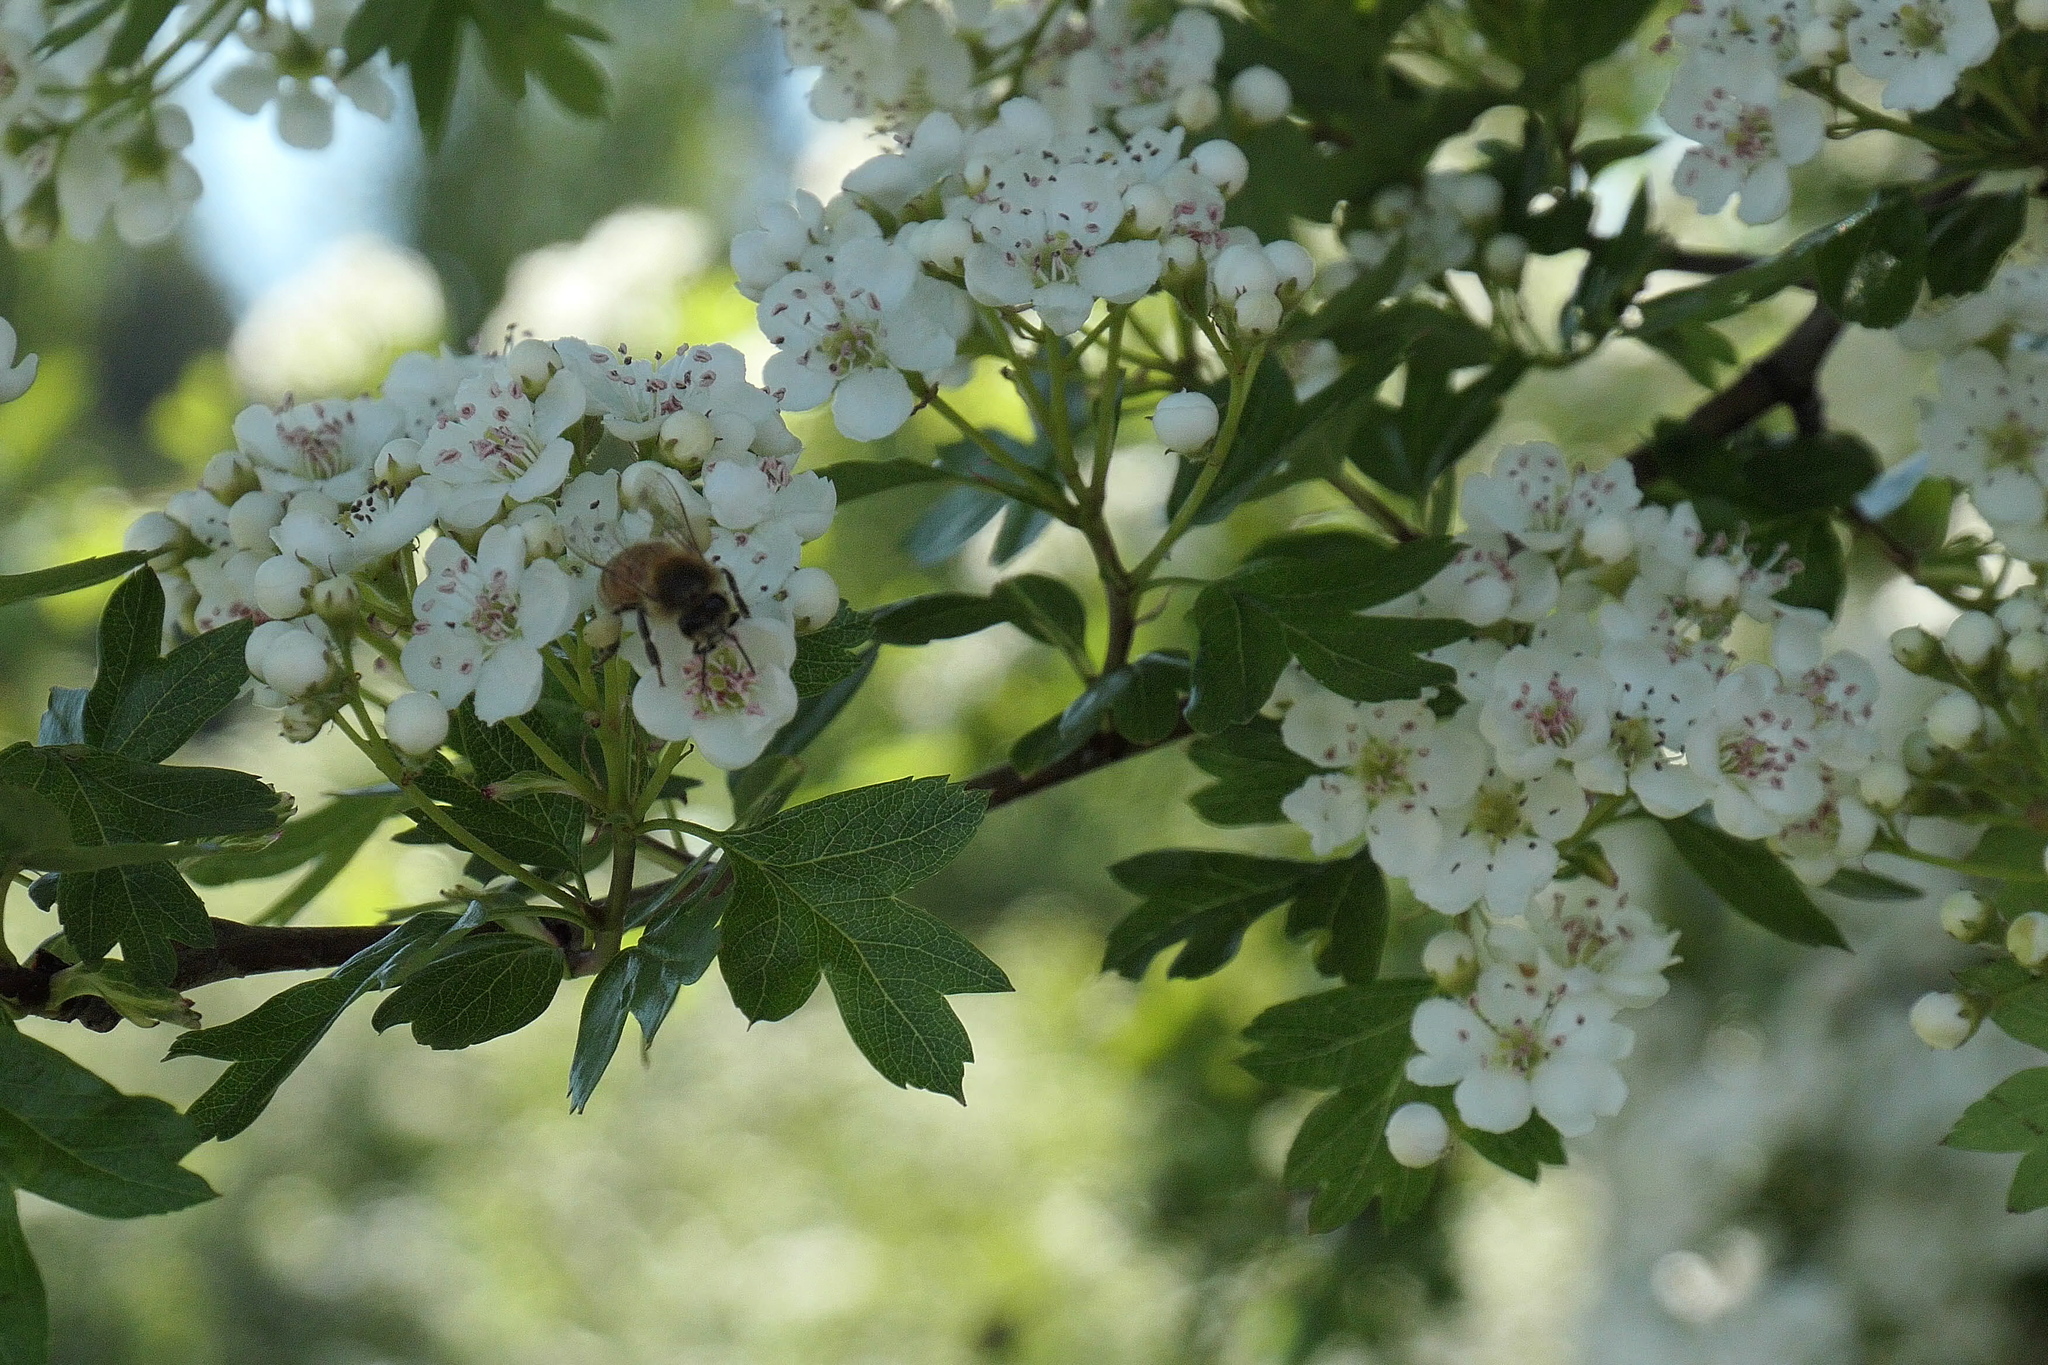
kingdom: Animalia
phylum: Arthropoda
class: Insecta
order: Hymenoptera
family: Apidae
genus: Apis
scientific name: Apis mellifera
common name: Honey bee
